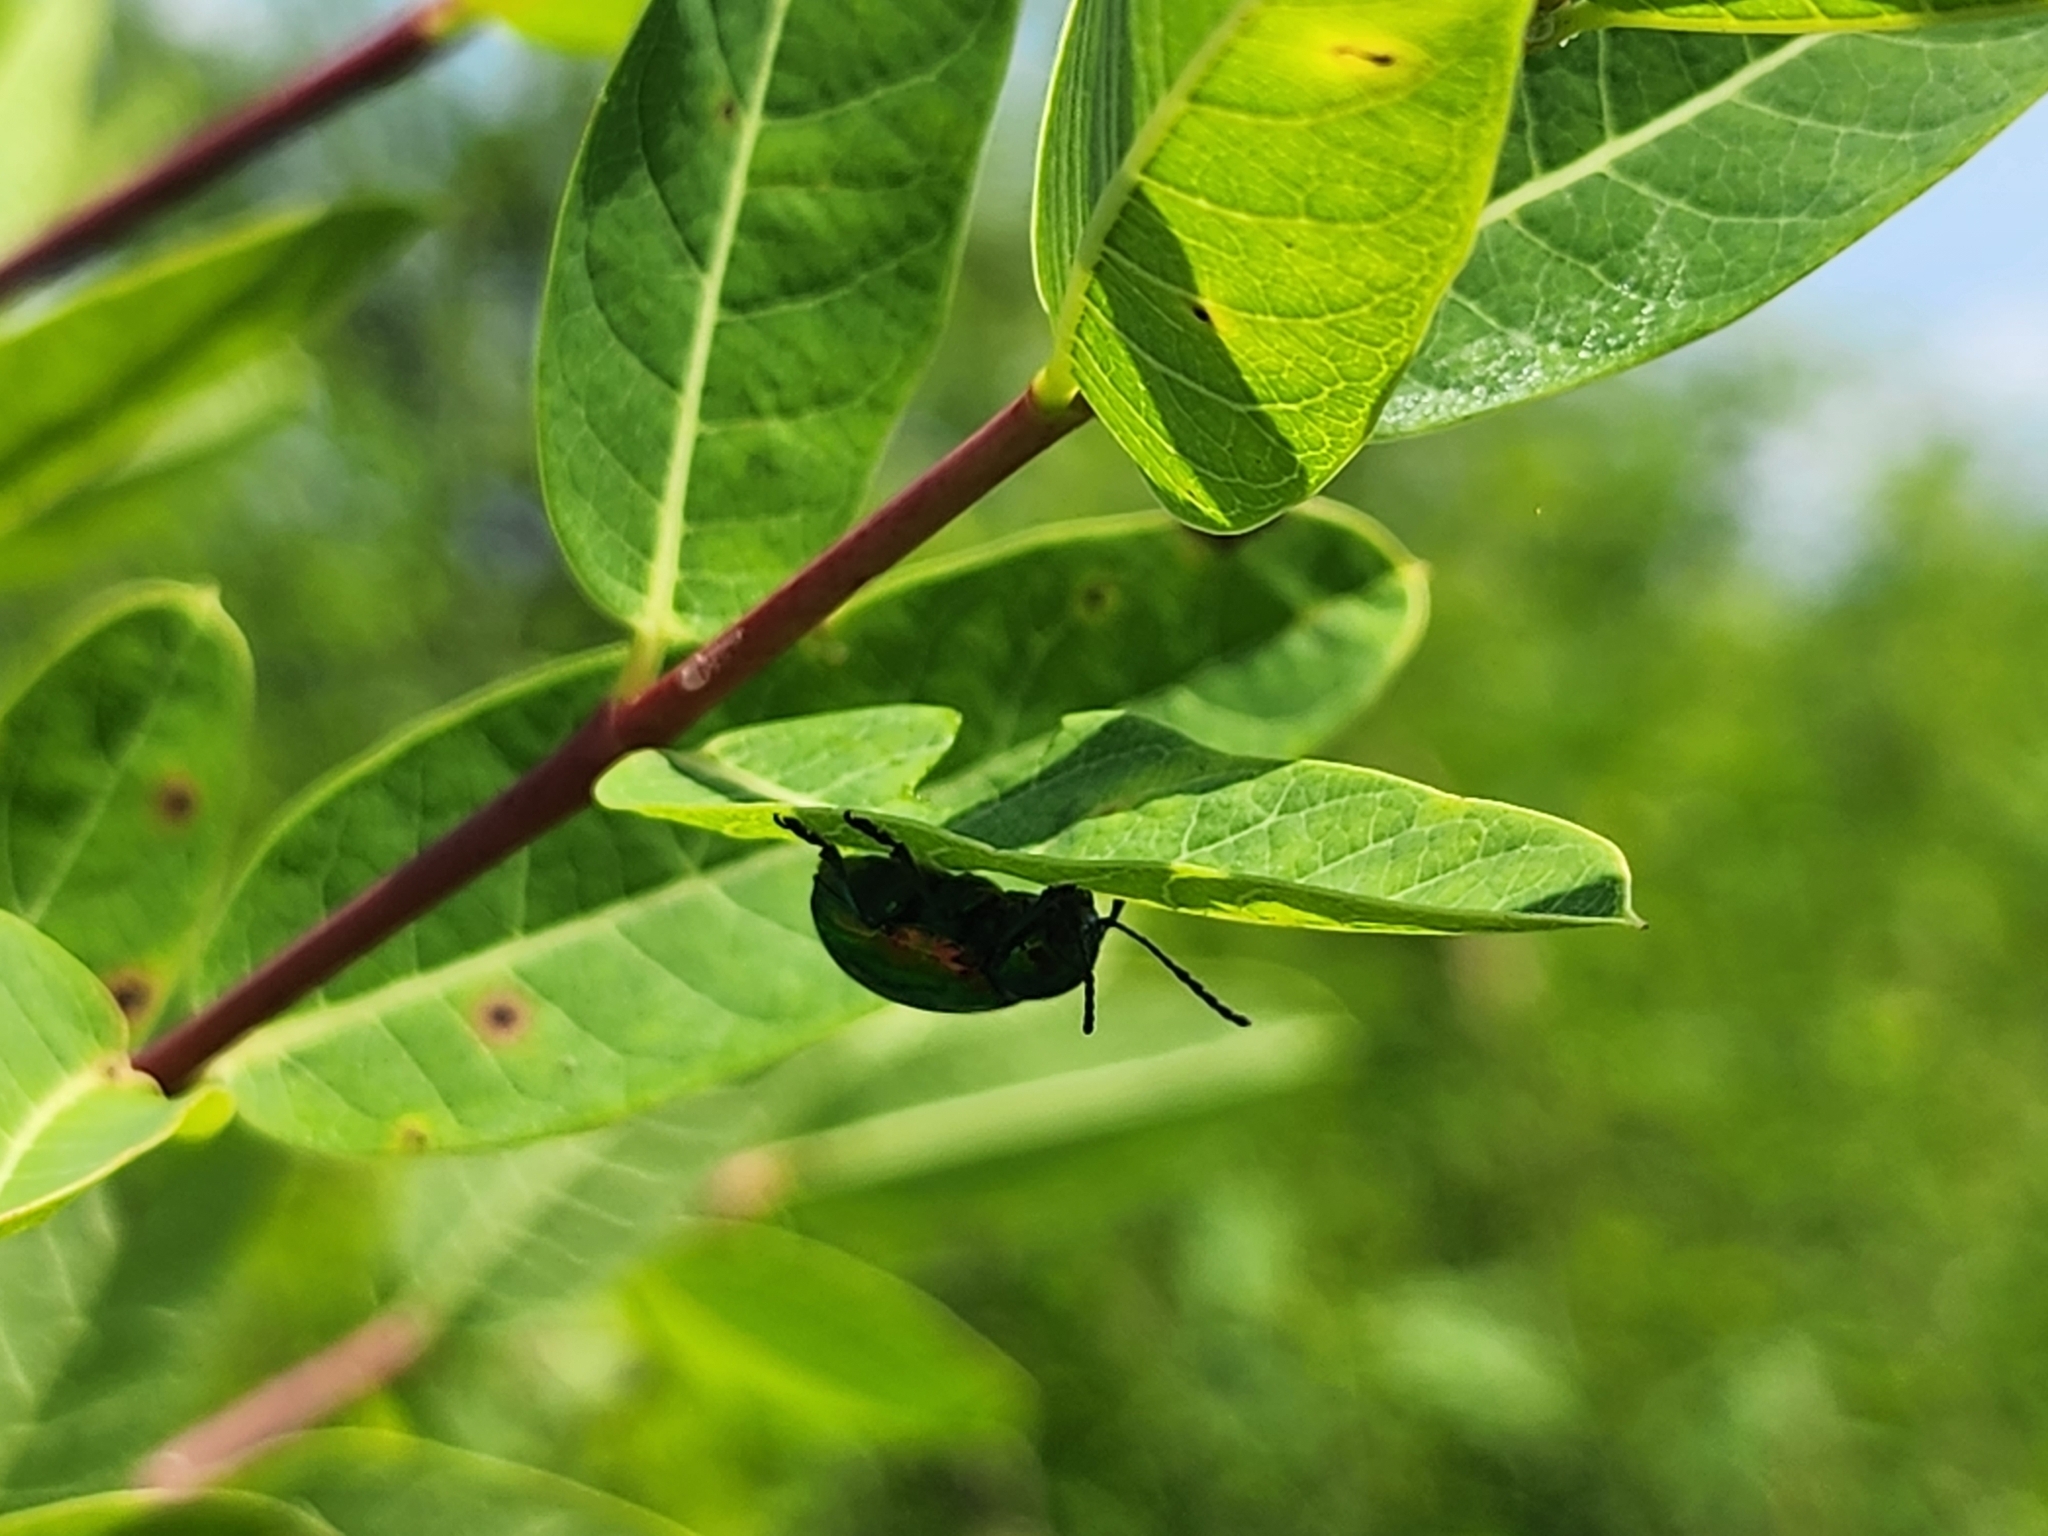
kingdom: Animalia
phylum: Arthropoda
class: Insecta
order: Coleoptera
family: Chrysomelidae
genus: Chrysochus
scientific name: Chrysochus auratus
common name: Dogbane leaf beetle
